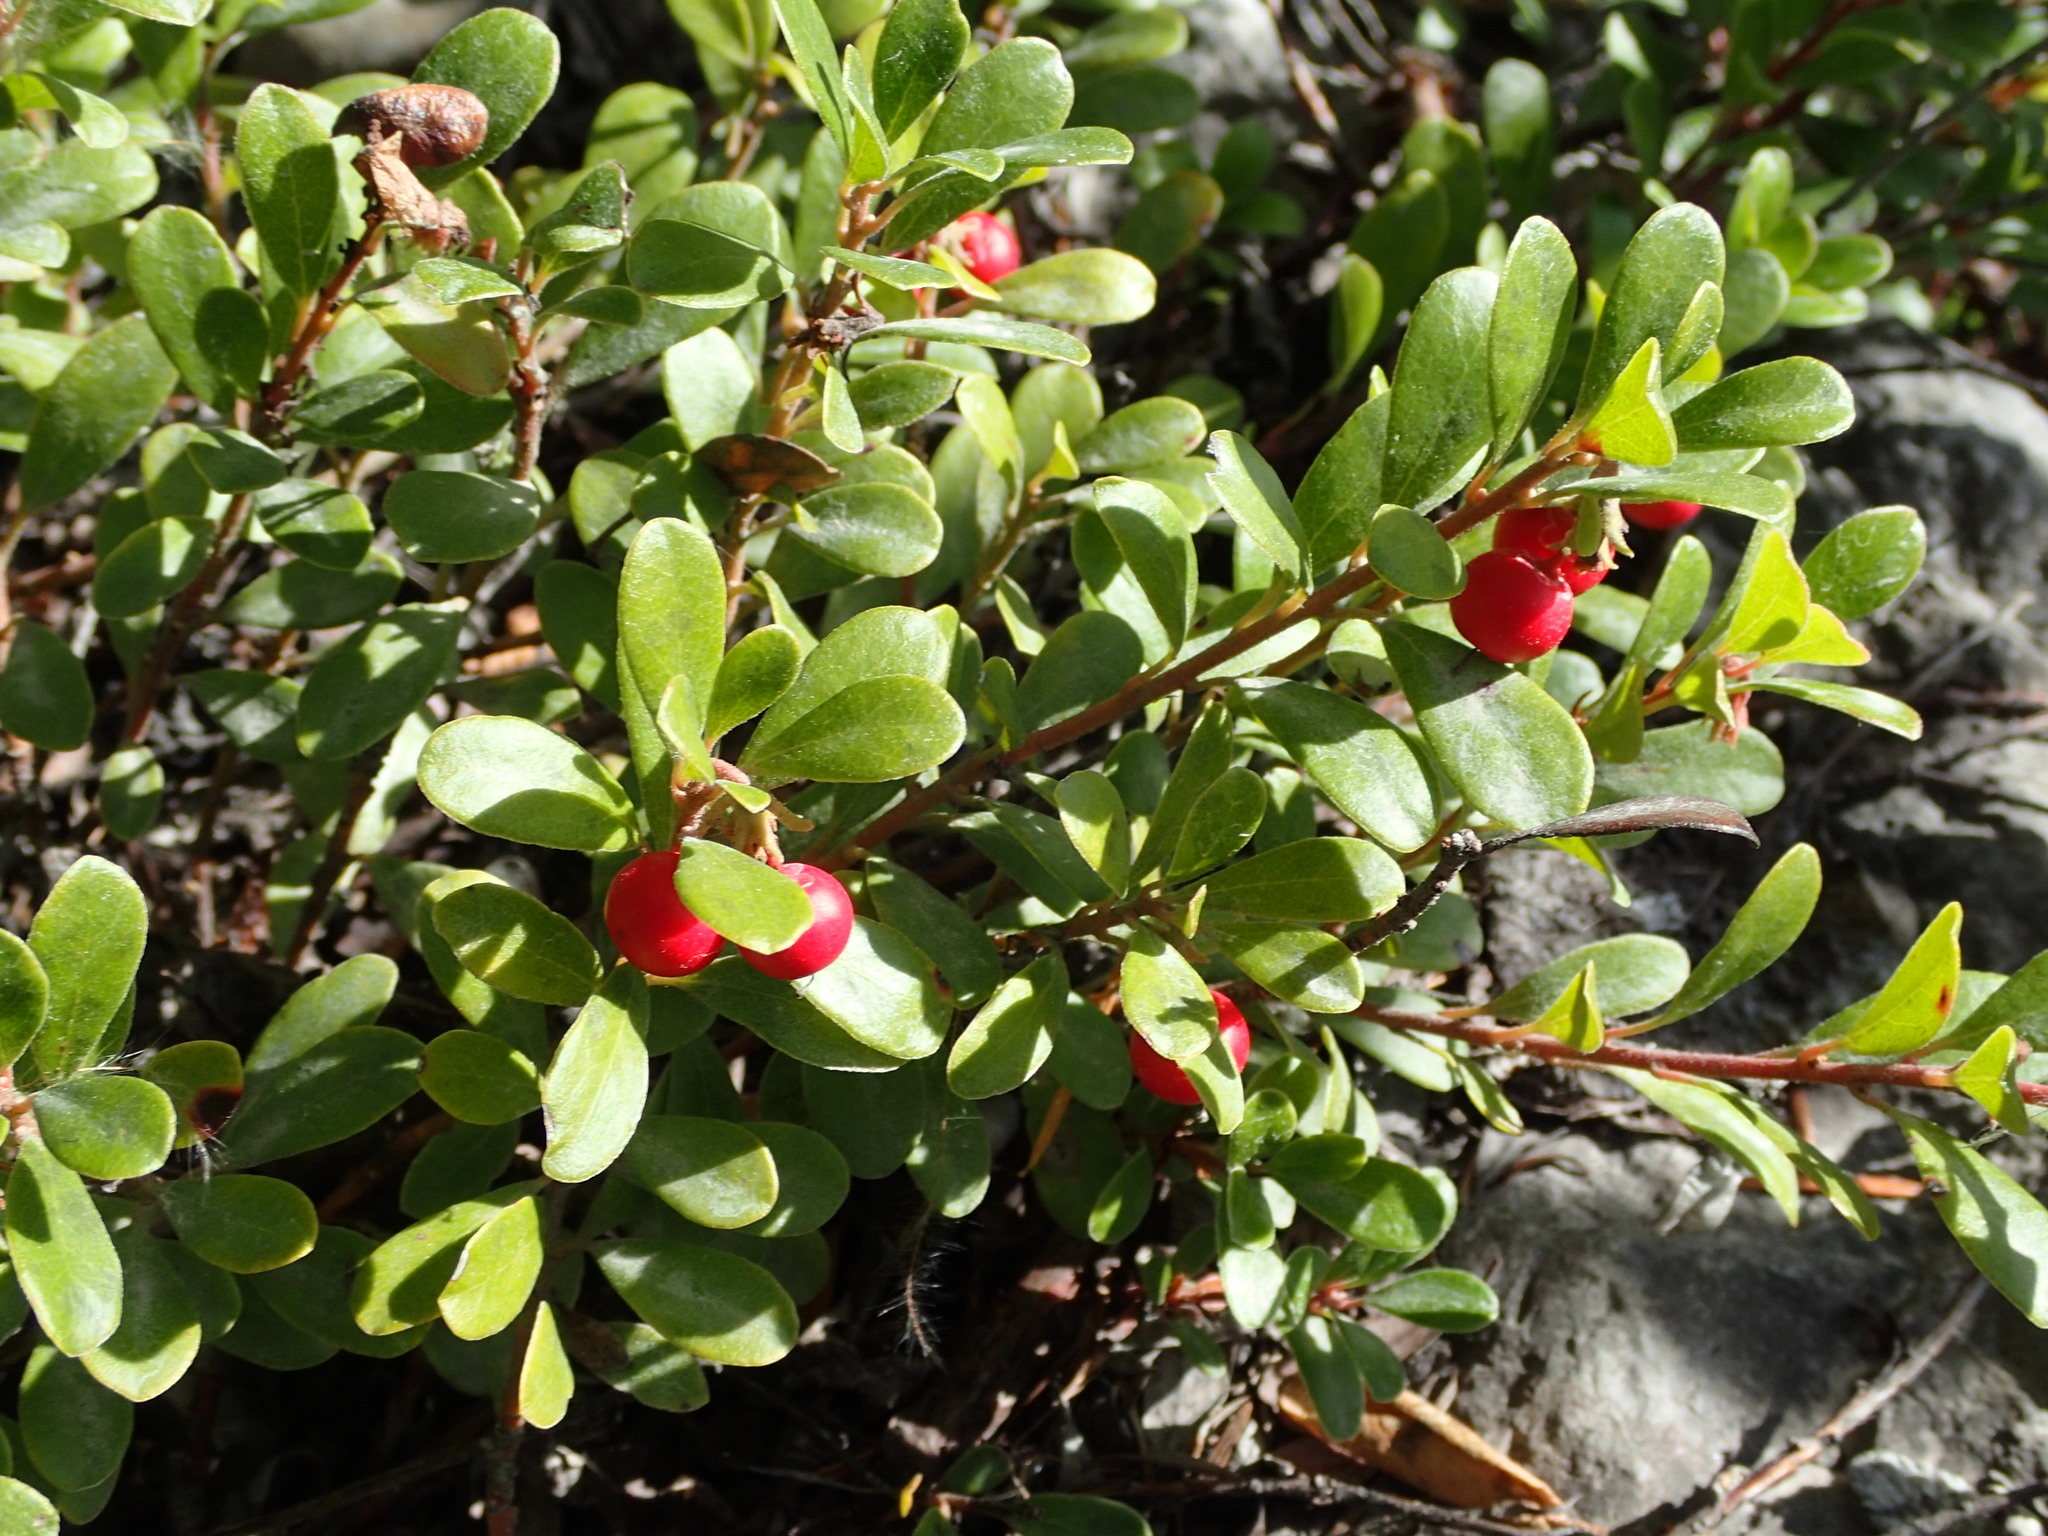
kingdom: Plantae
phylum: Tracheophyta
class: Magnoliopsida
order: Ericales
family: Ericaceae
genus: Arctostaphylos
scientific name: Arctostaphylos uva-ursi
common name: Bearberry
